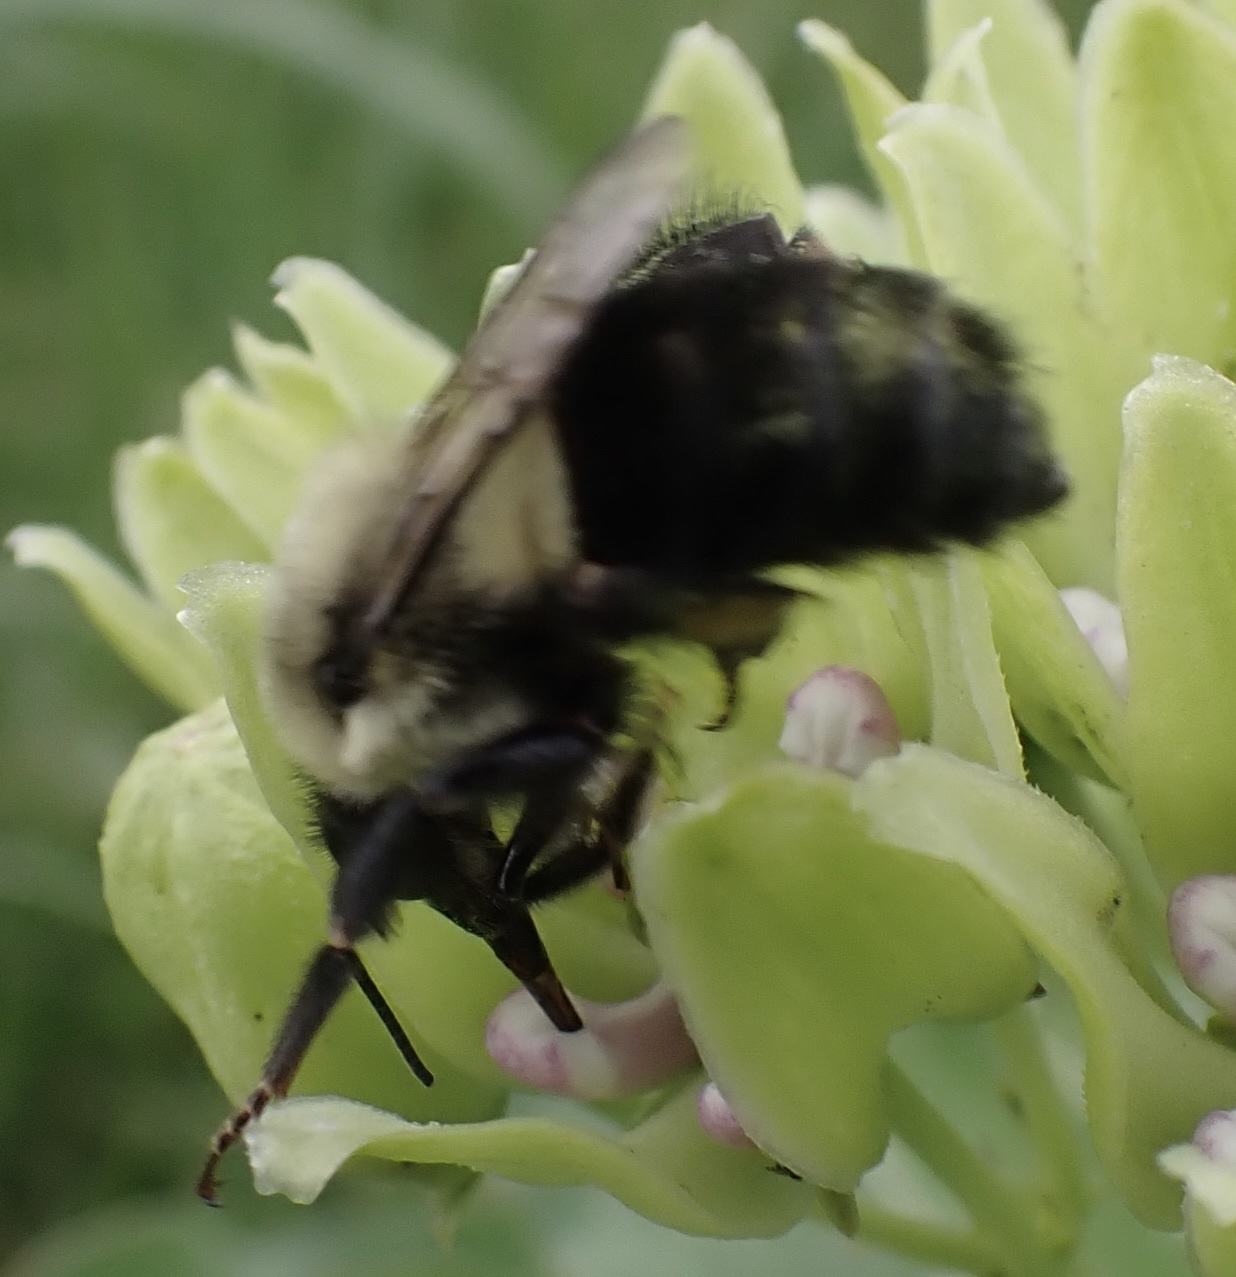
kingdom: Animalia
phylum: Arthropoda
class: Insecta
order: Hymenoptera
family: Apidae
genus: Bombus
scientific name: Bombus impatiens
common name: Common eastern bumble bee
